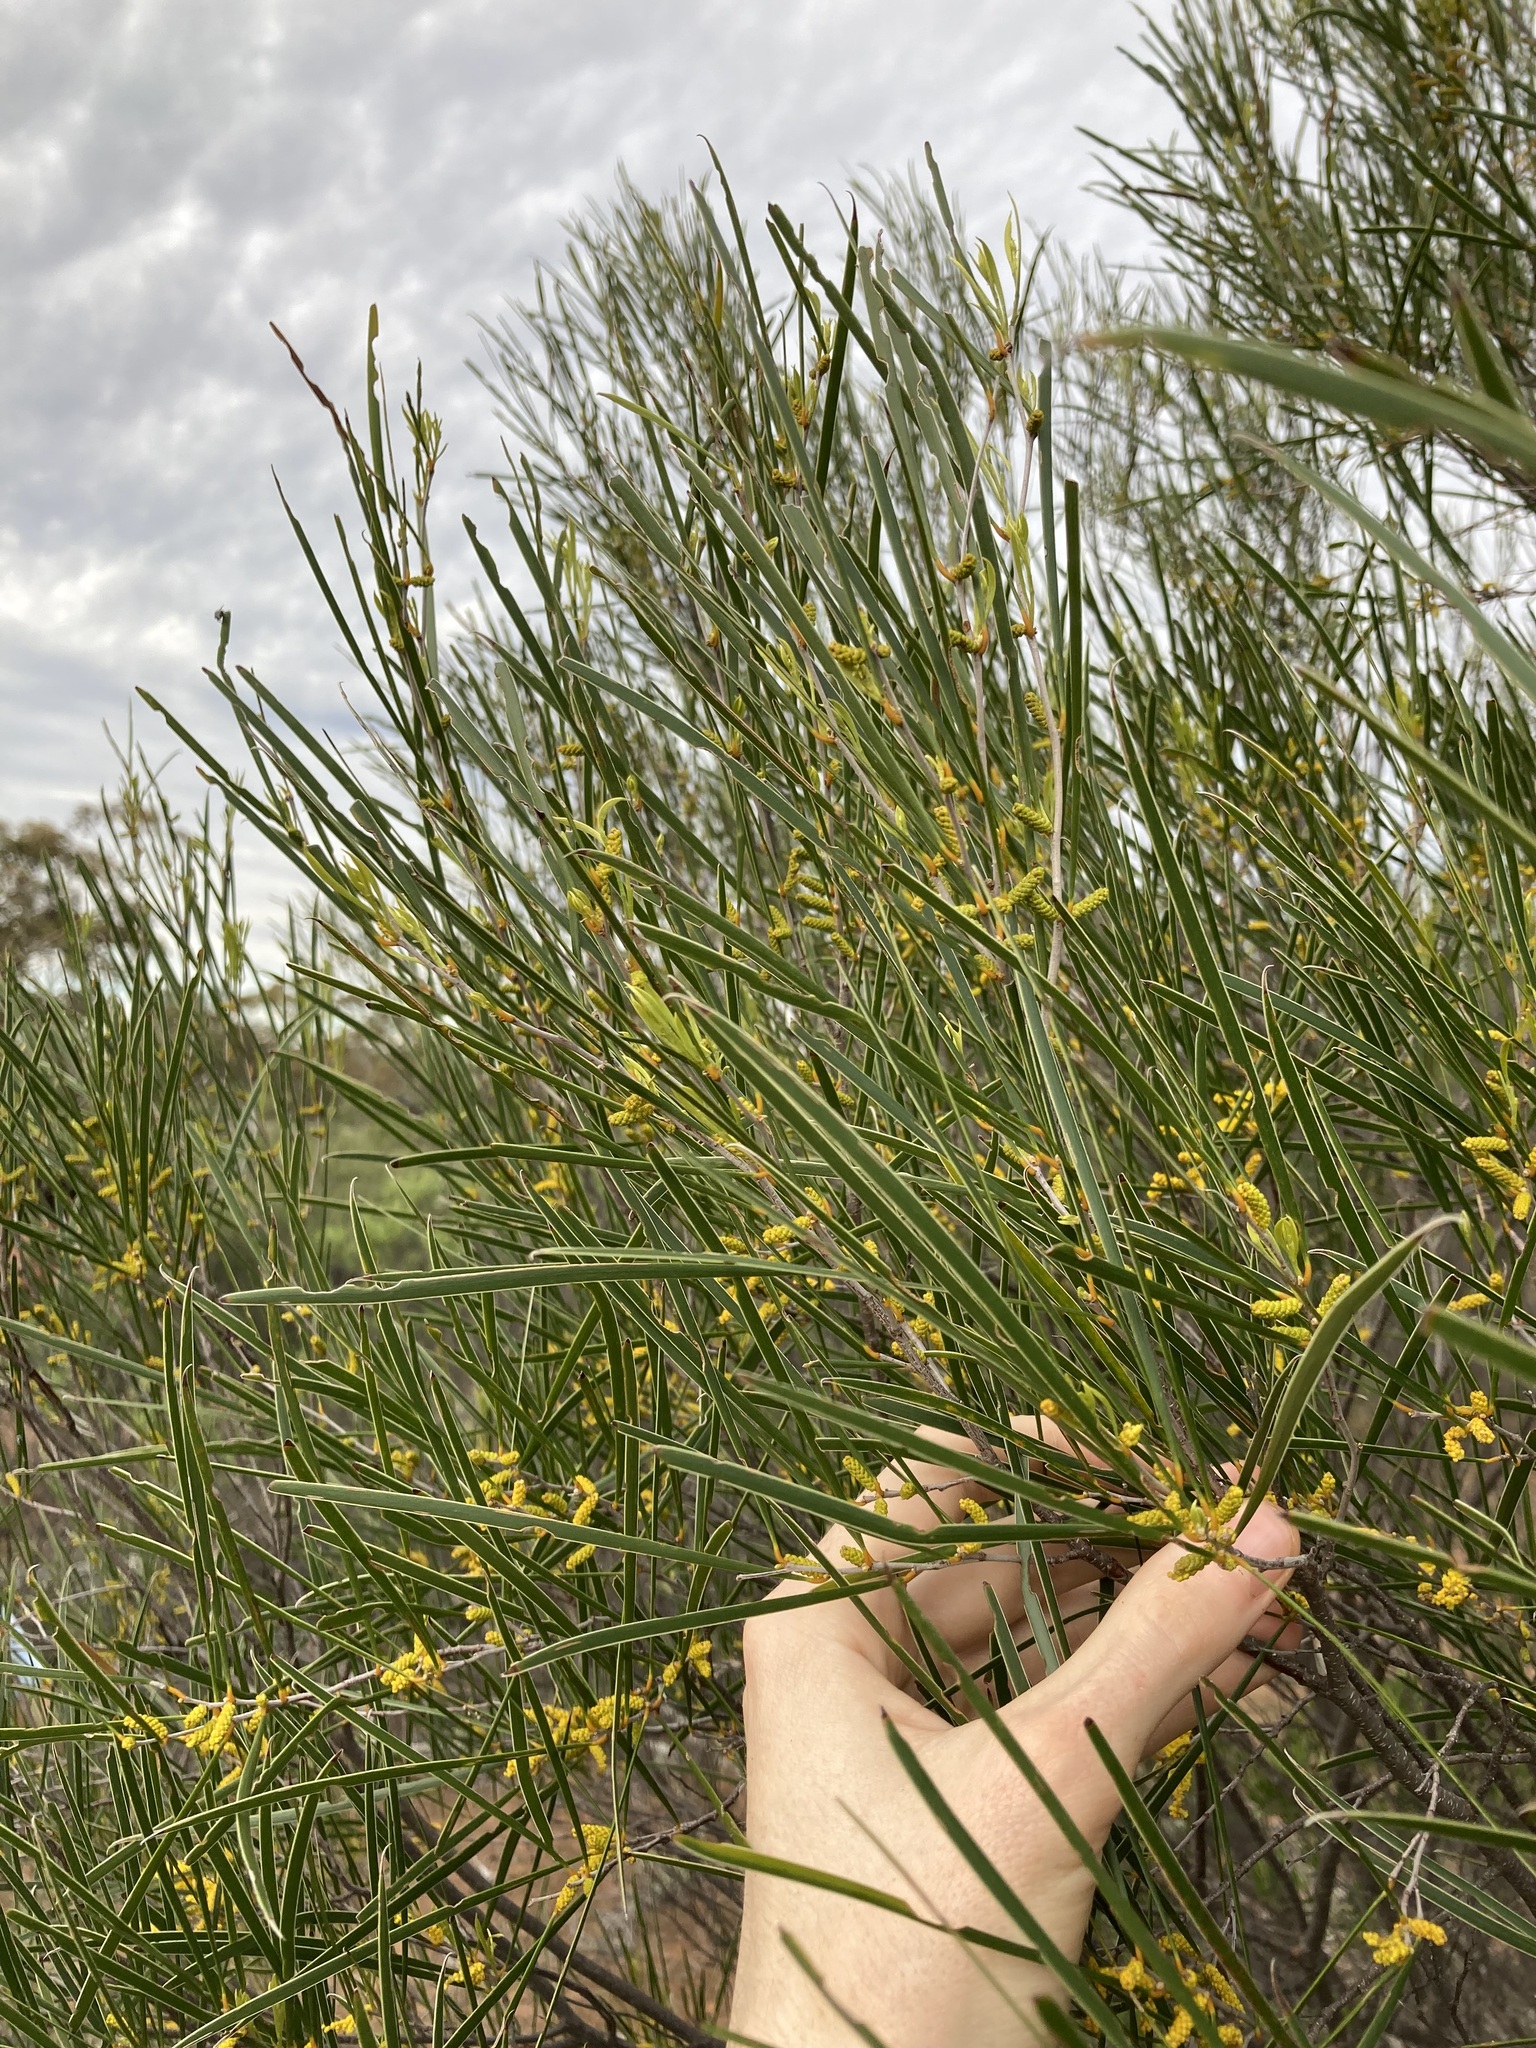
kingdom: Plantae
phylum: Tracheophyta
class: Magnoliopsida
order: Fabales
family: Fabaceae
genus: Acacia
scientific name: Acacia acuminata
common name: Jam wattle
